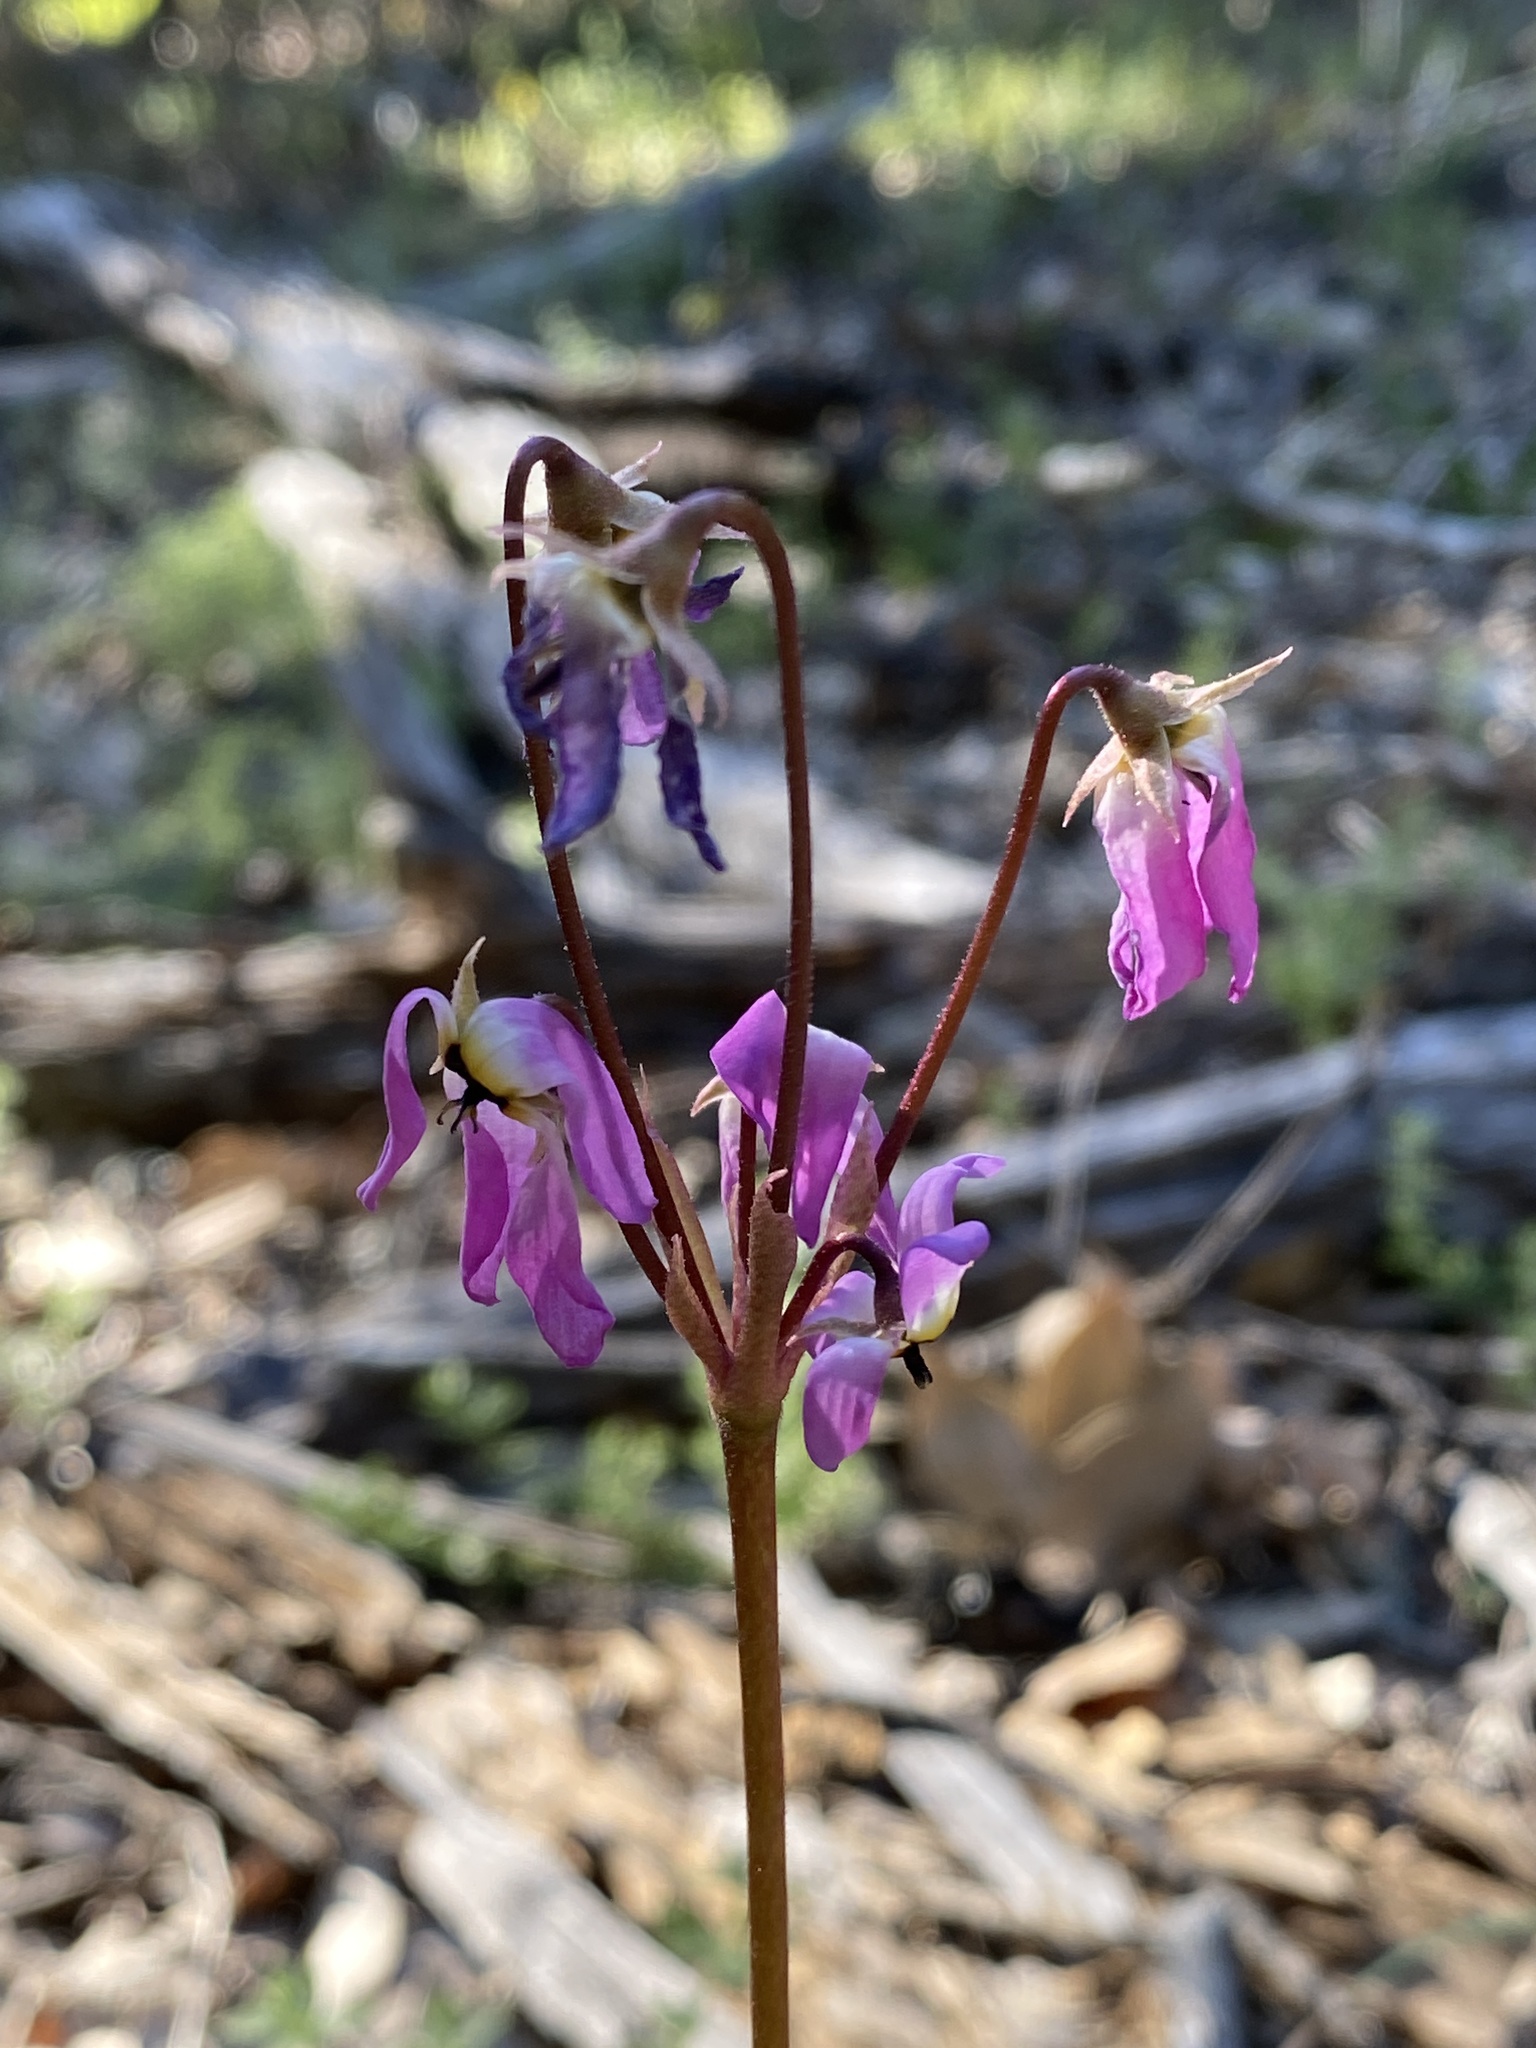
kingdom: Plantae
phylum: Tracheophyta
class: Magnoliopsida
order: Ericales
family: Primulaceae
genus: Dodecatheon
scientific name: Dodecatheon hendersonii
